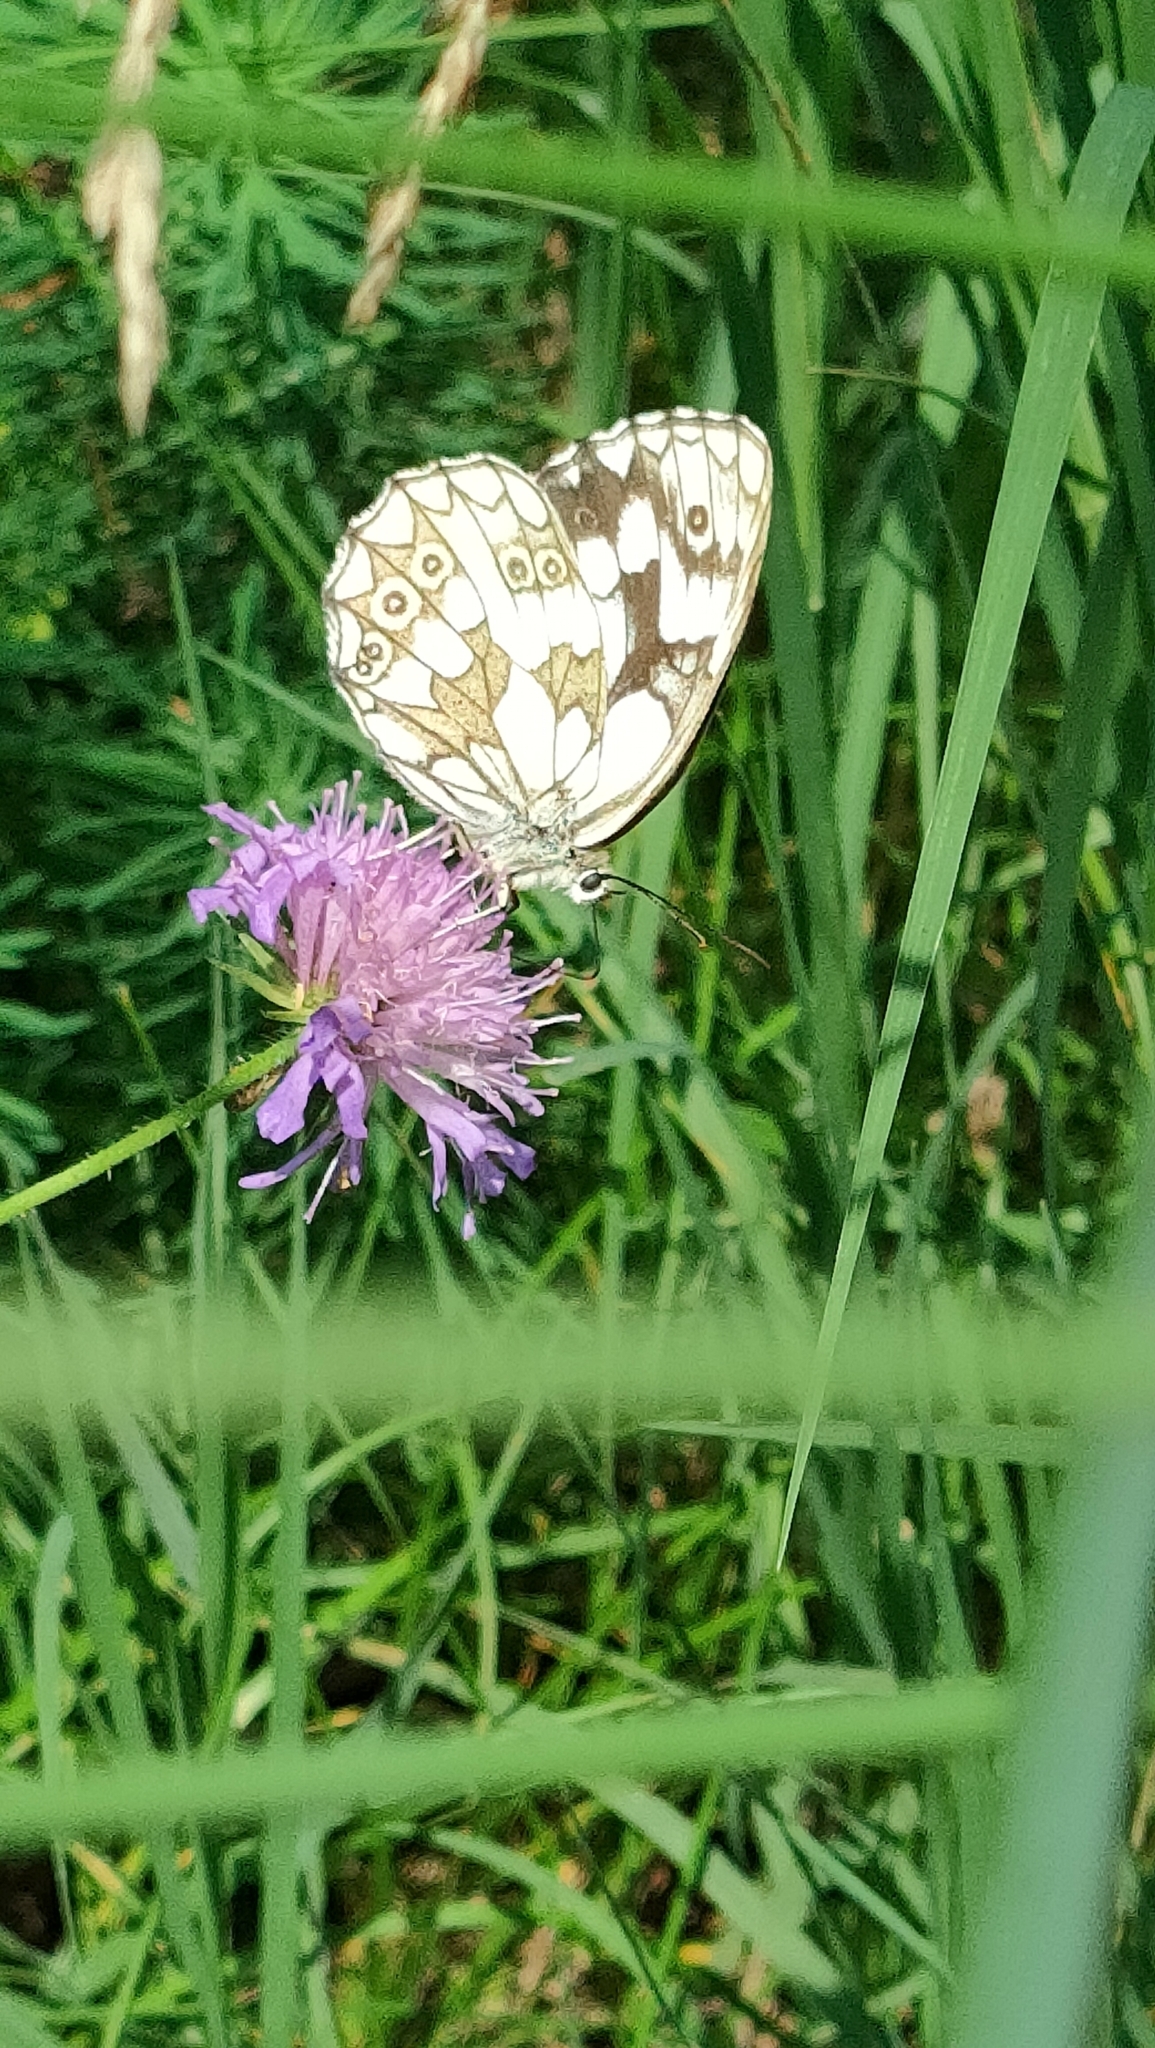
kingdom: Animalia
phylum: Arthropoda
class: Insecta
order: Lepidoptera
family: Nymphalidae
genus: Melanargia
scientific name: Melanargia galathea
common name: Marbled white
